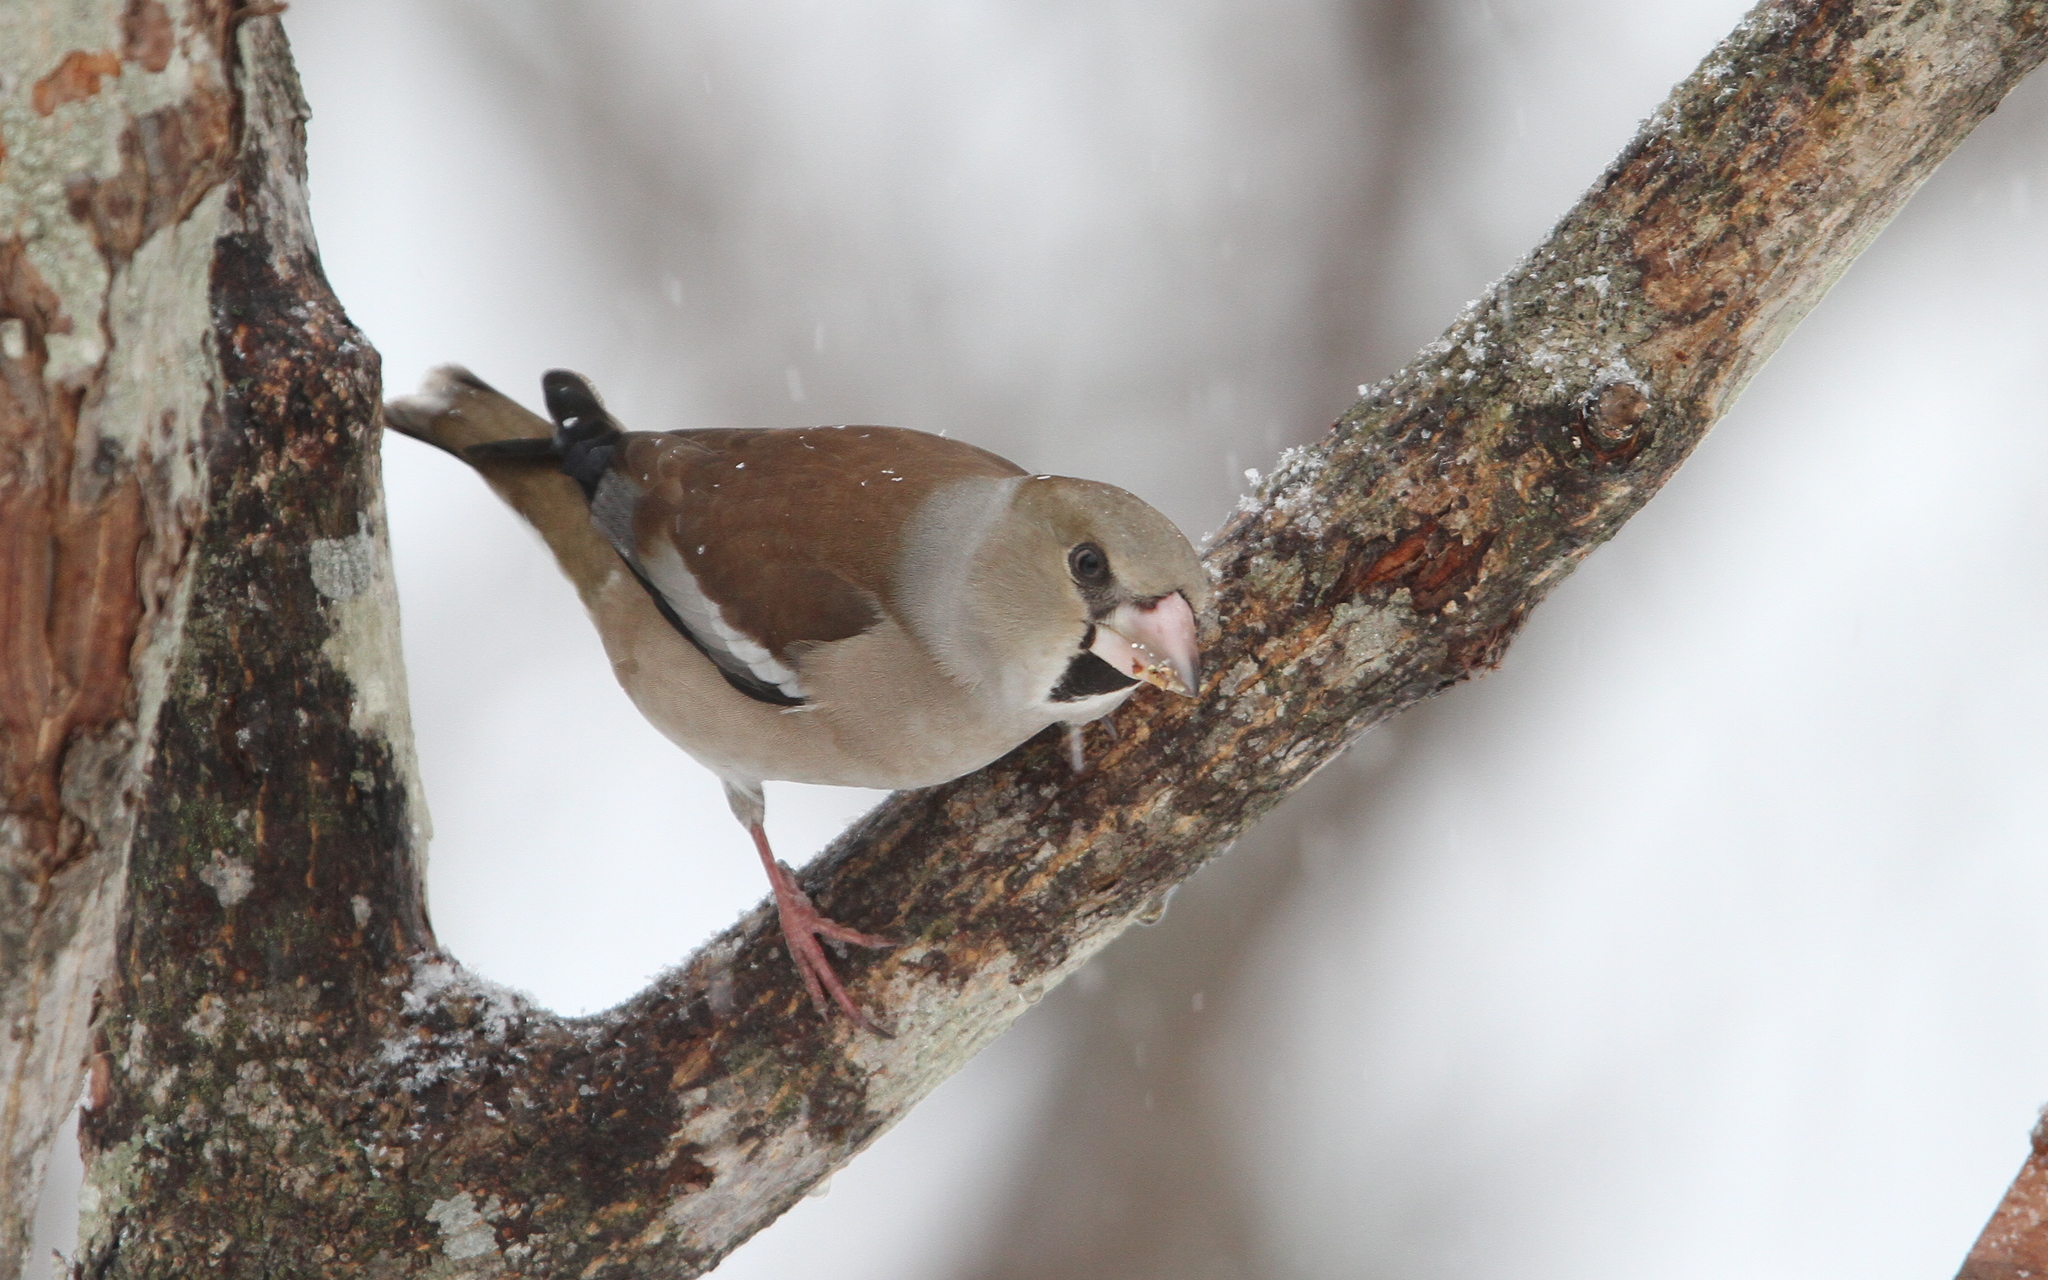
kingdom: Animalia
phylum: Chordata
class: Aves
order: Passeriformes
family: Fringillidae
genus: Coccothraustes
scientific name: Coccothraustes coccothraustes
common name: Hawfinch
